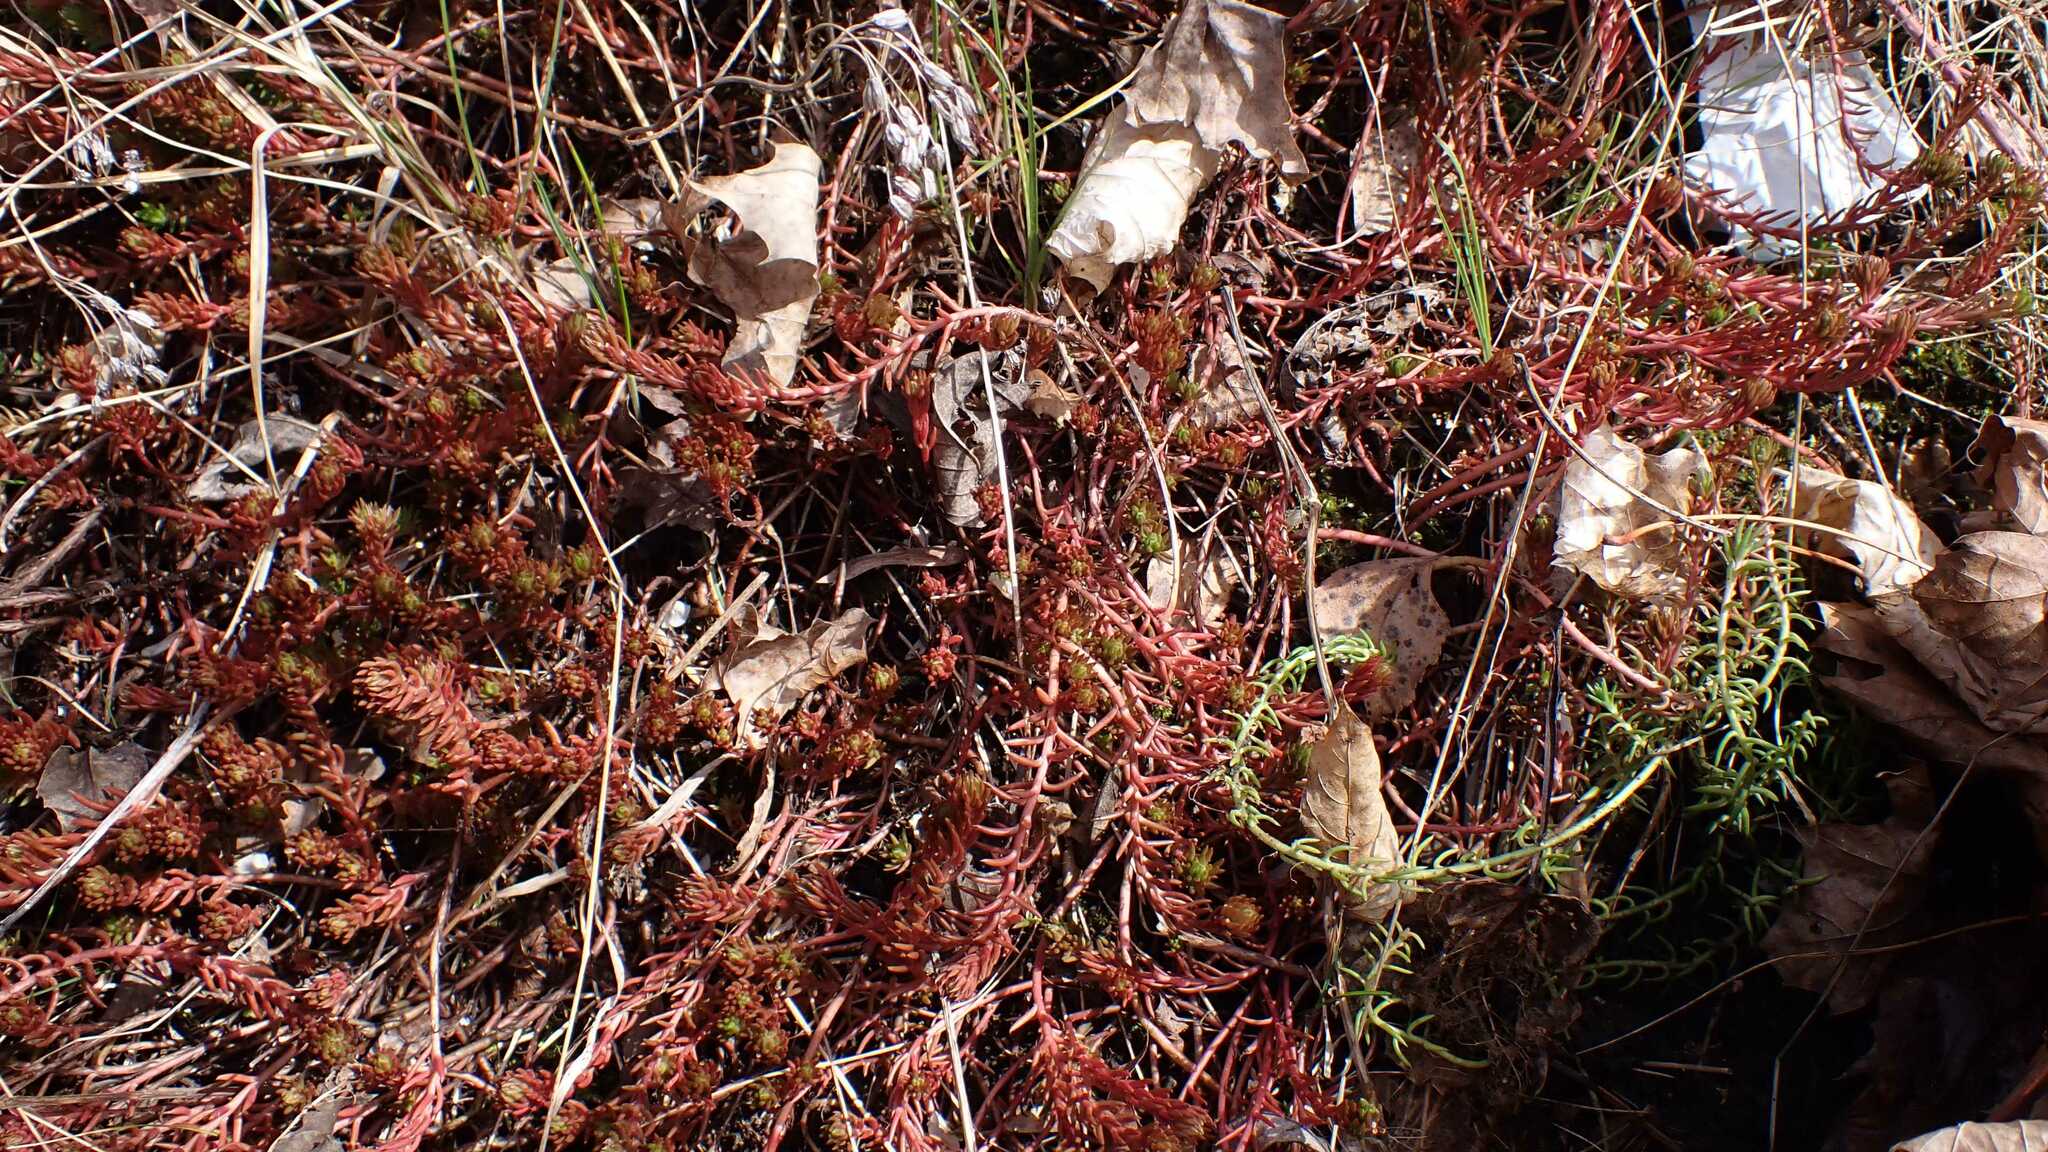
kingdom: Plantae
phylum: Tracheophyta
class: Magnoliopsida
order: Saxifragales
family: Crassulaceae
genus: Petrosedum
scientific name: Petrosedum rupestre
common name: Jenny's stonecrop
